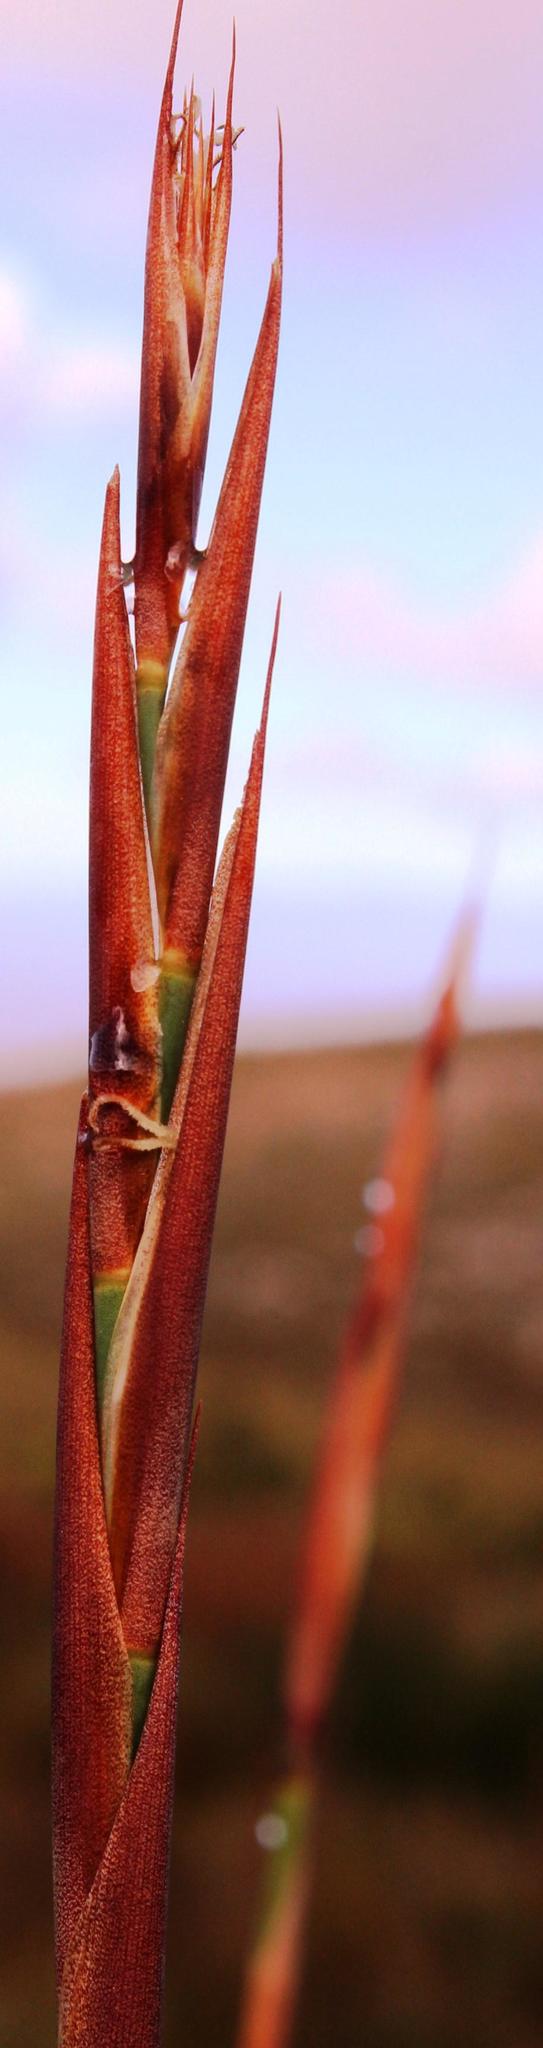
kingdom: Plantae
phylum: Tracheophyta
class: Liliopsida
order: Poales
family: Restionaceae
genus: Cannomois
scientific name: Cannomois robusta
